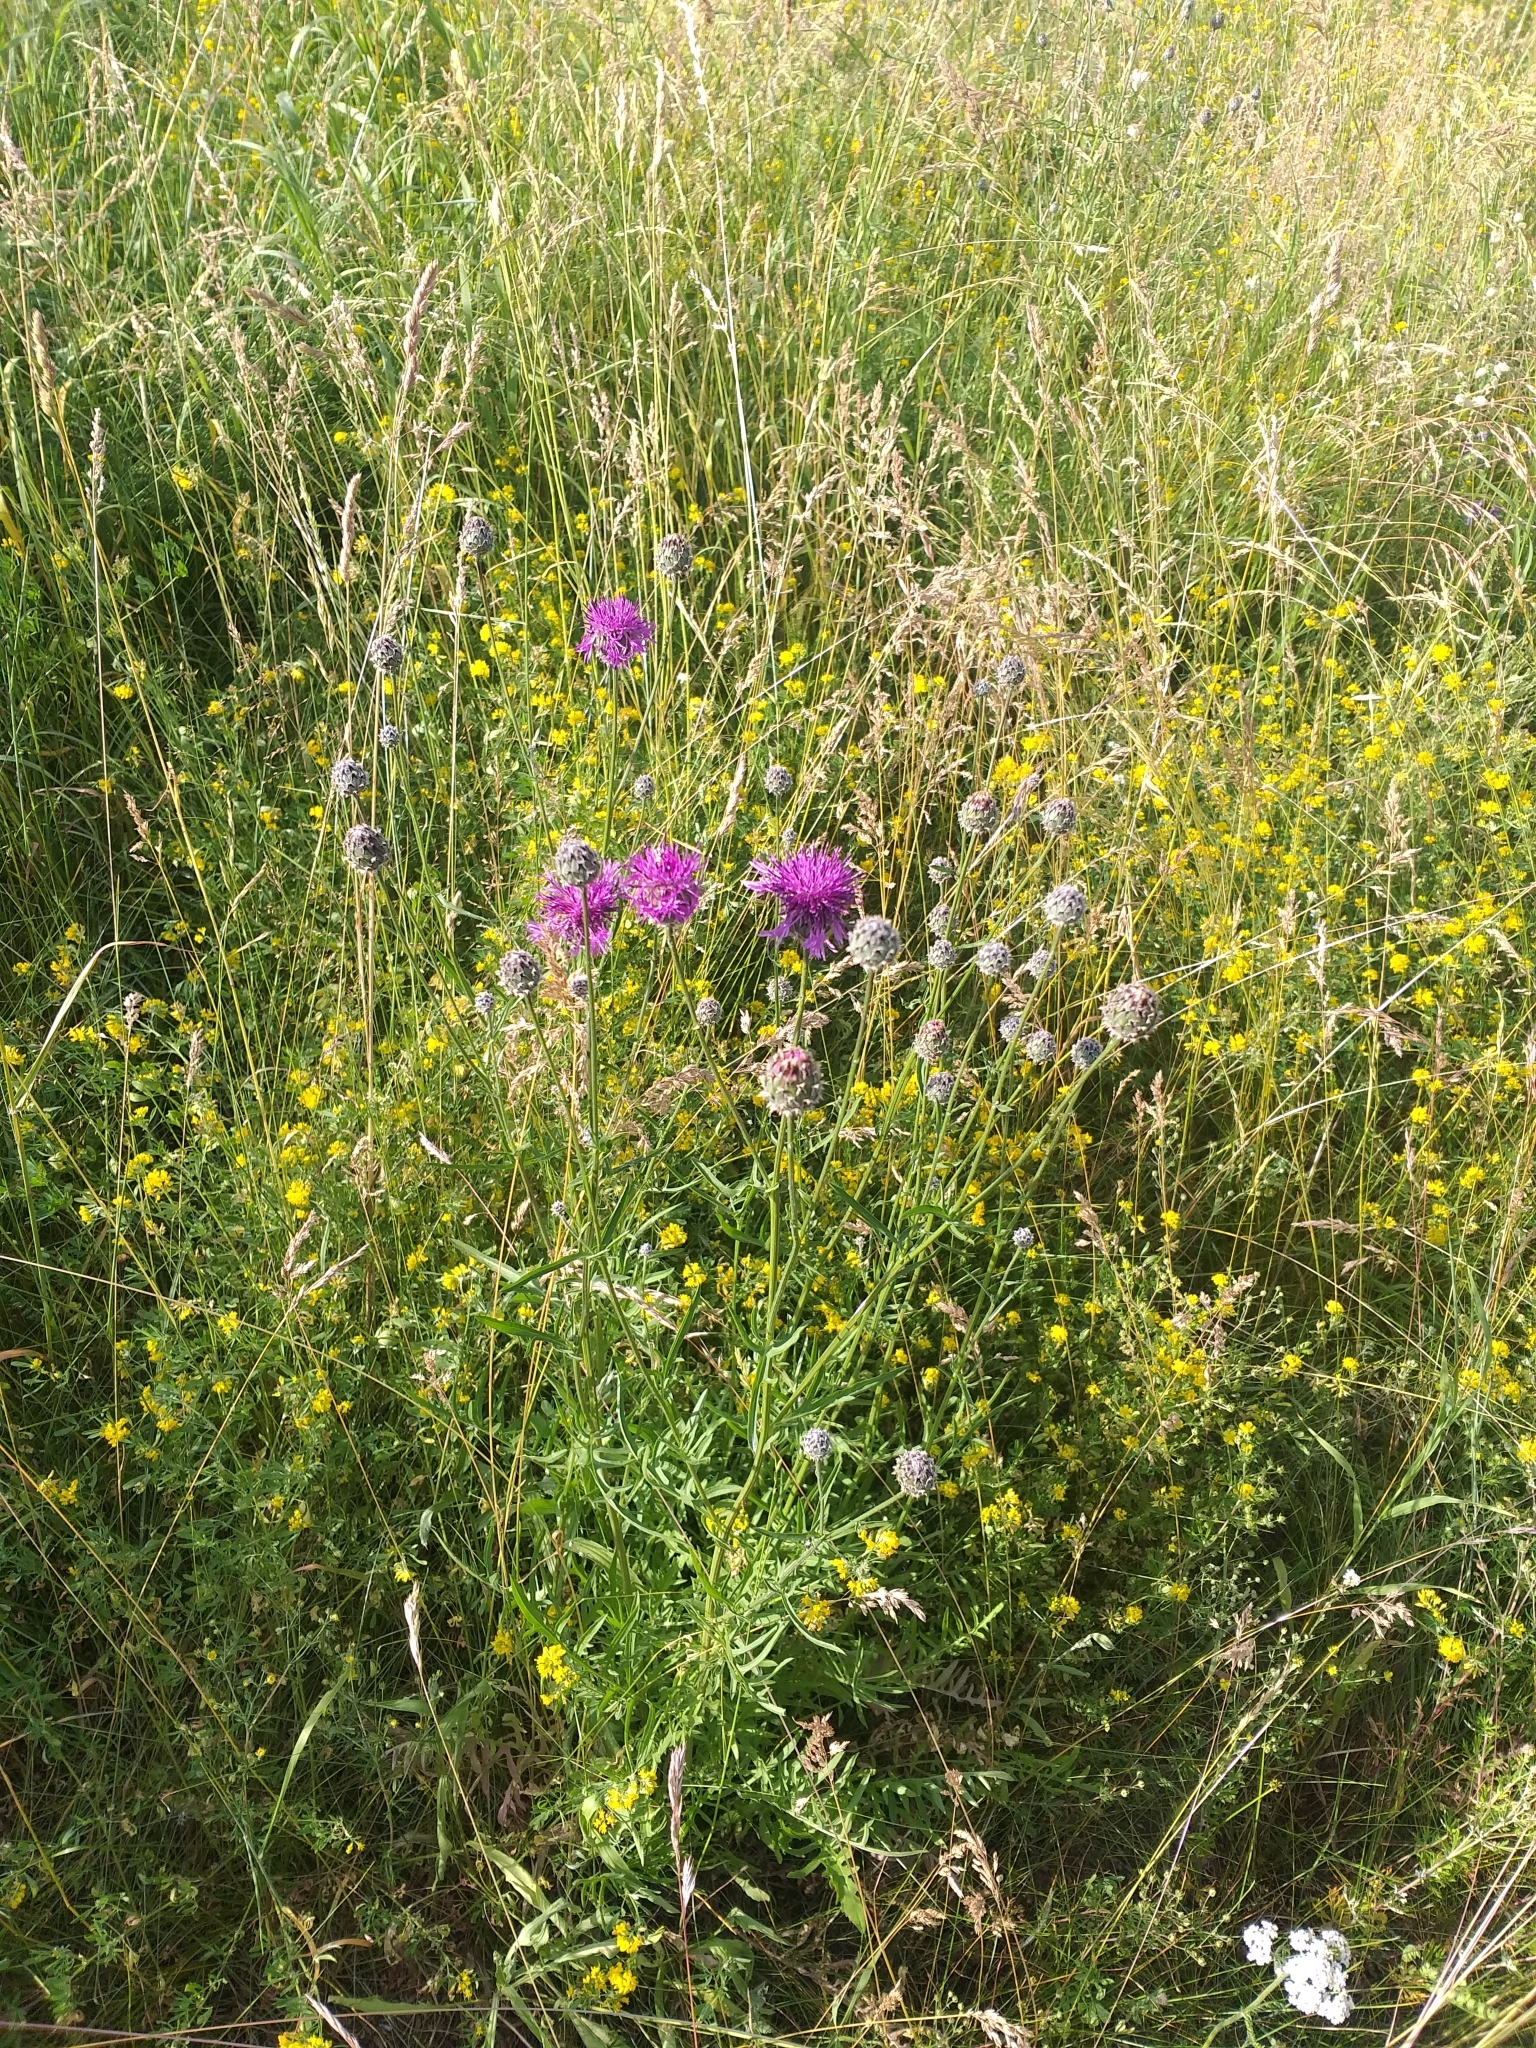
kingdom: Plantae
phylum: Tracheophyta
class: Magnoliopsida
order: Asterales
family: Asteraceae
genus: Centaurea
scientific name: Centaurea scabiosa
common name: Greater knapweed
